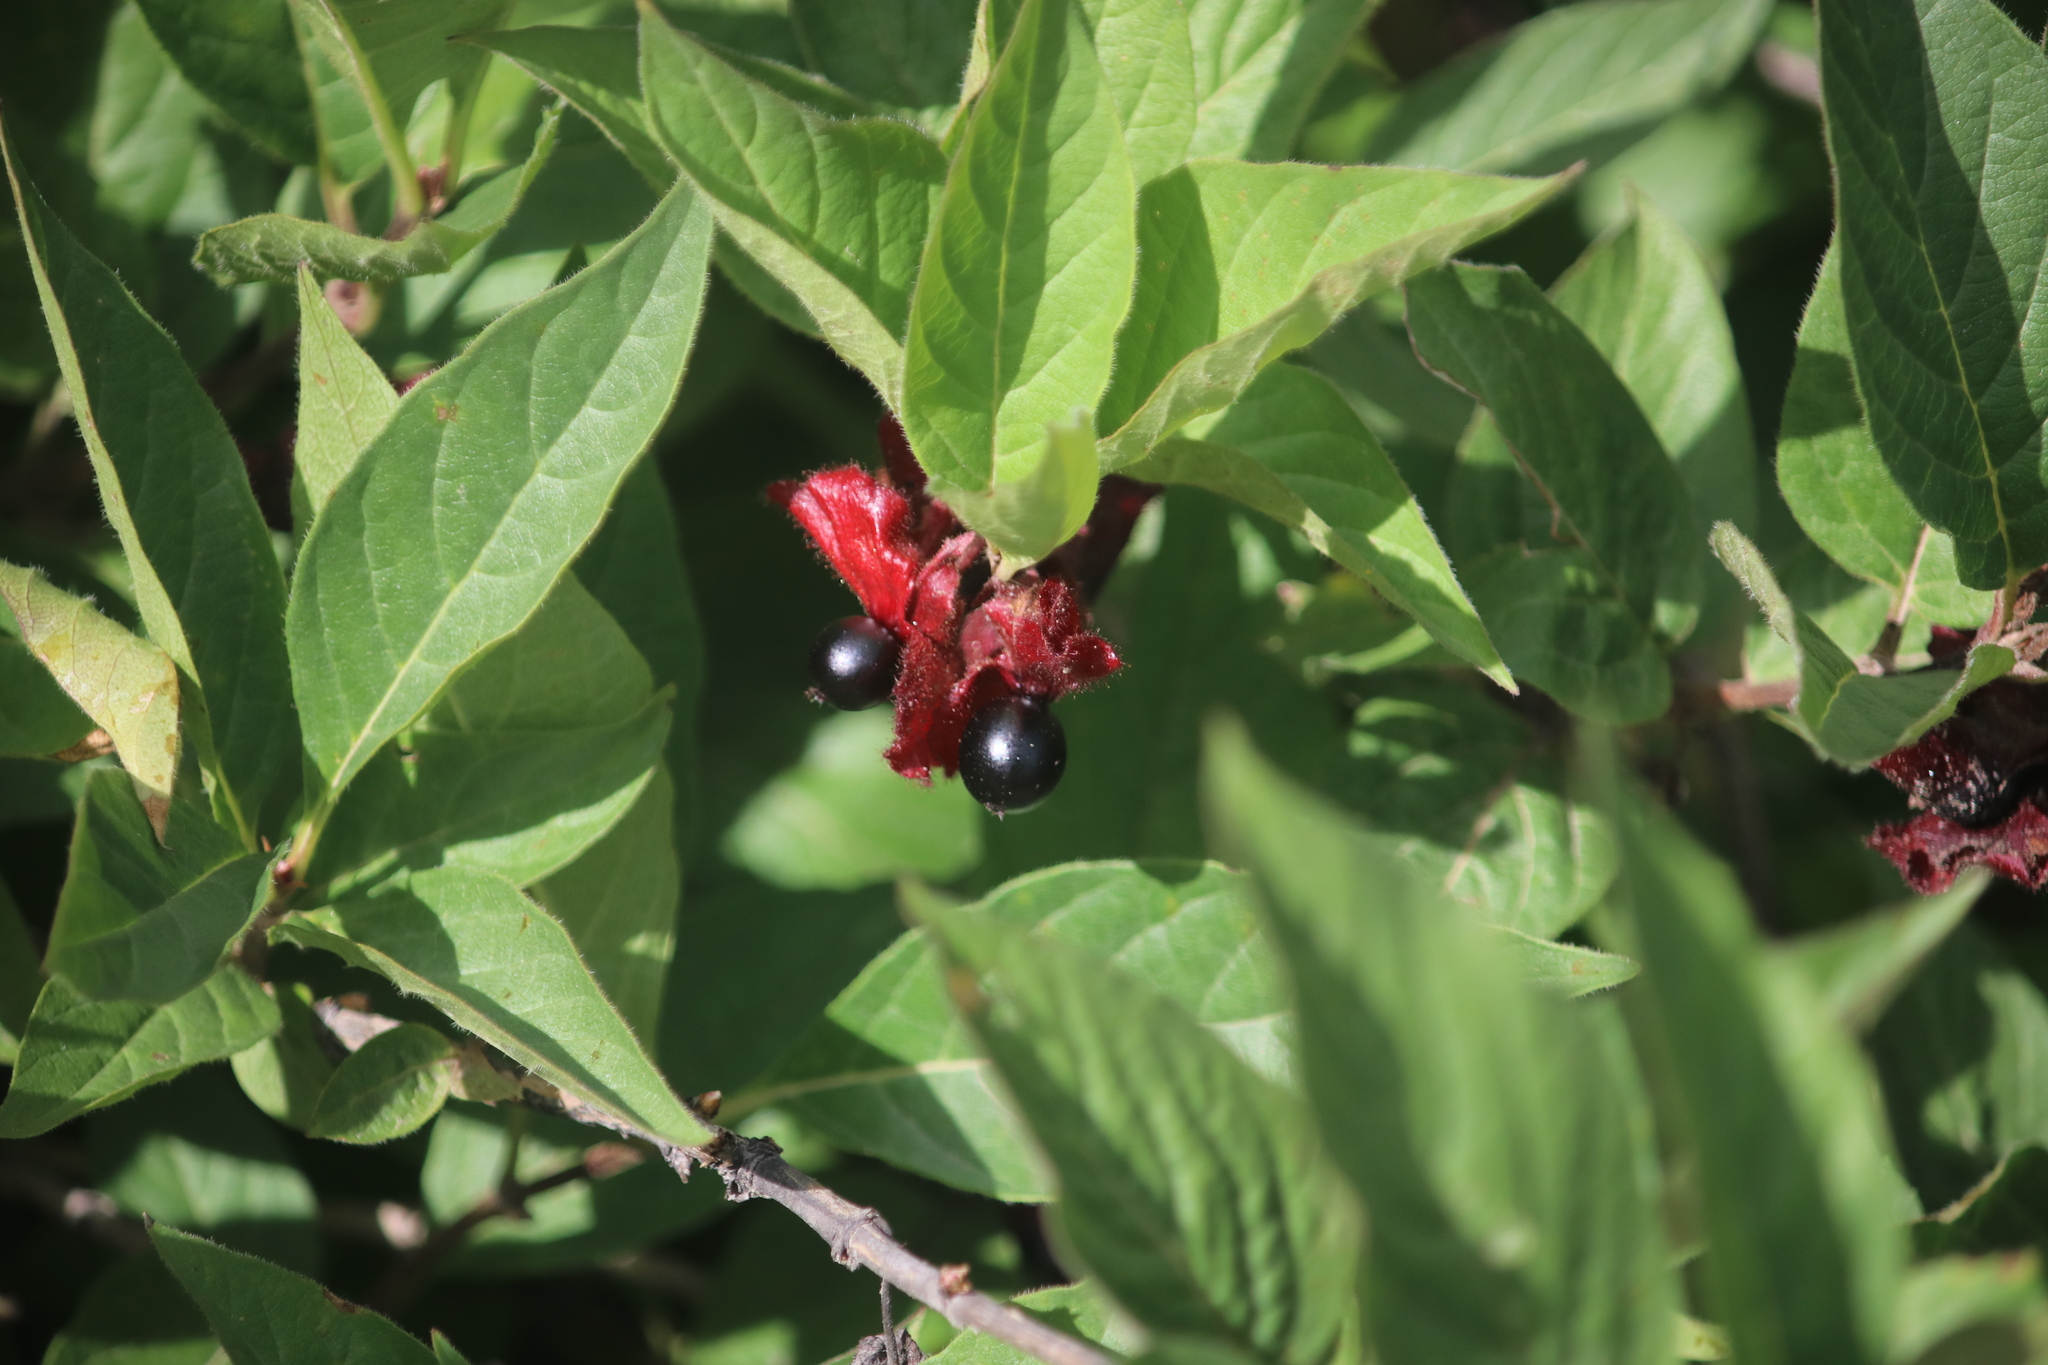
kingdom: Plantae
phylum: Tracheophyta
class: Magnoliopsida
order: Dipsacales
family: Caprifoliaceae
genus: Lonicera
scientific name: Lonicera involucrata
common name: Californian honeysuckle
